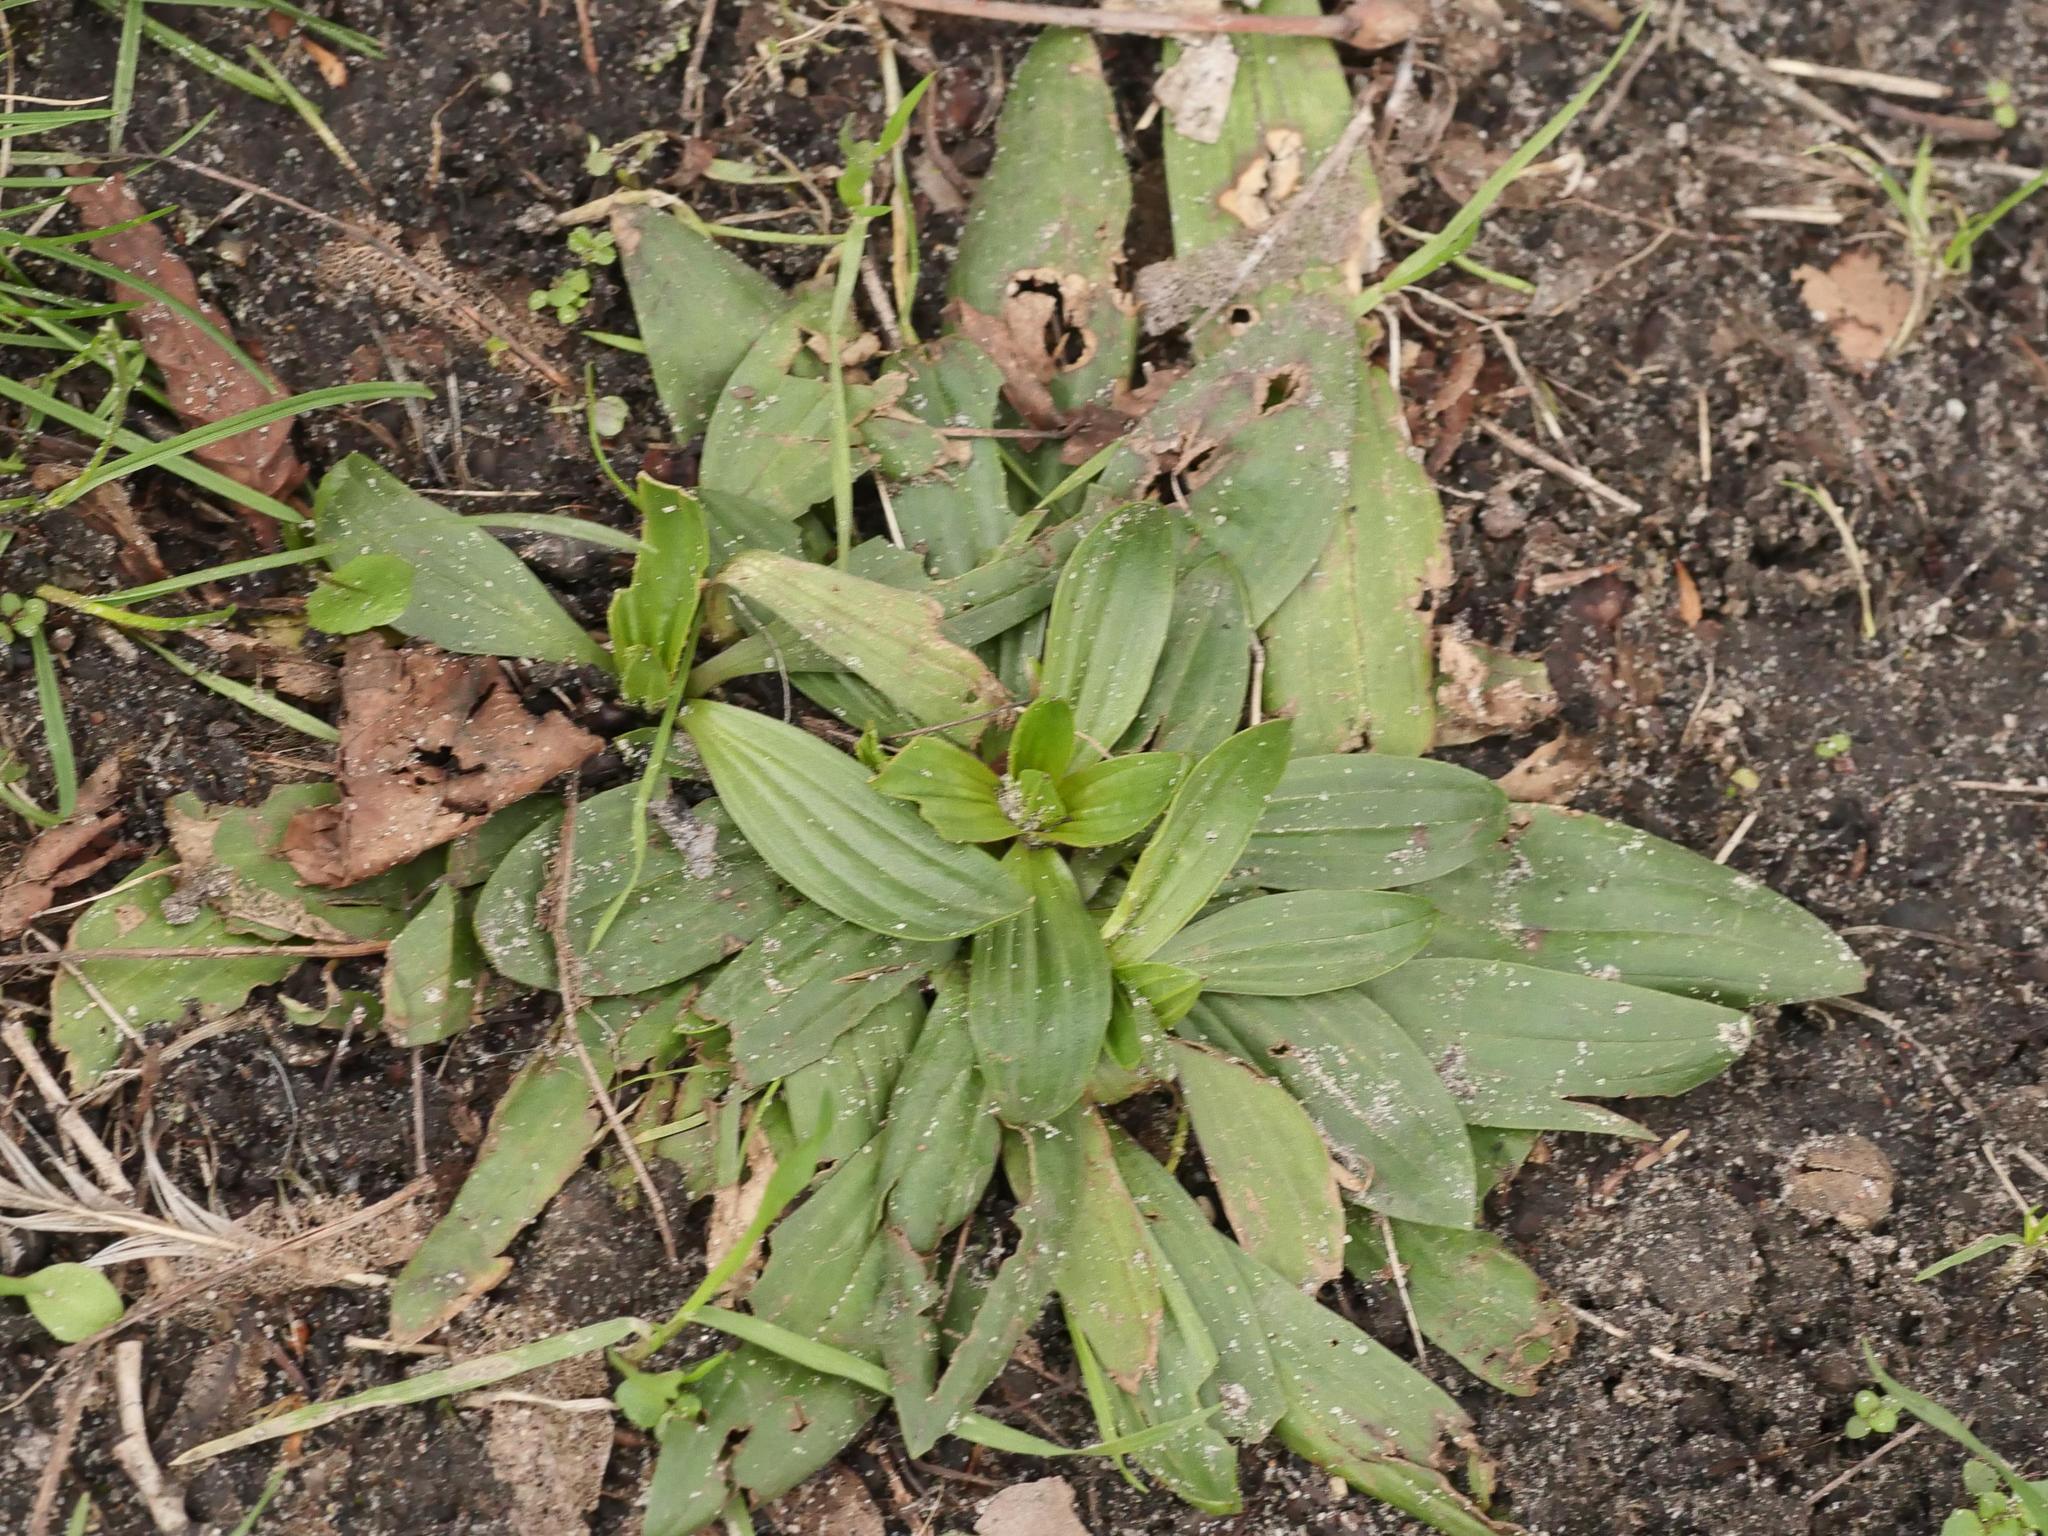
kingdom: Plantae
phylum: Tracheophyta
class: Magnoliopsida
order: Lamiales
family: Plantaginaceae
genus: Plantago
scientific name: Plantago lanceolata
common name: Ribwort plantain
